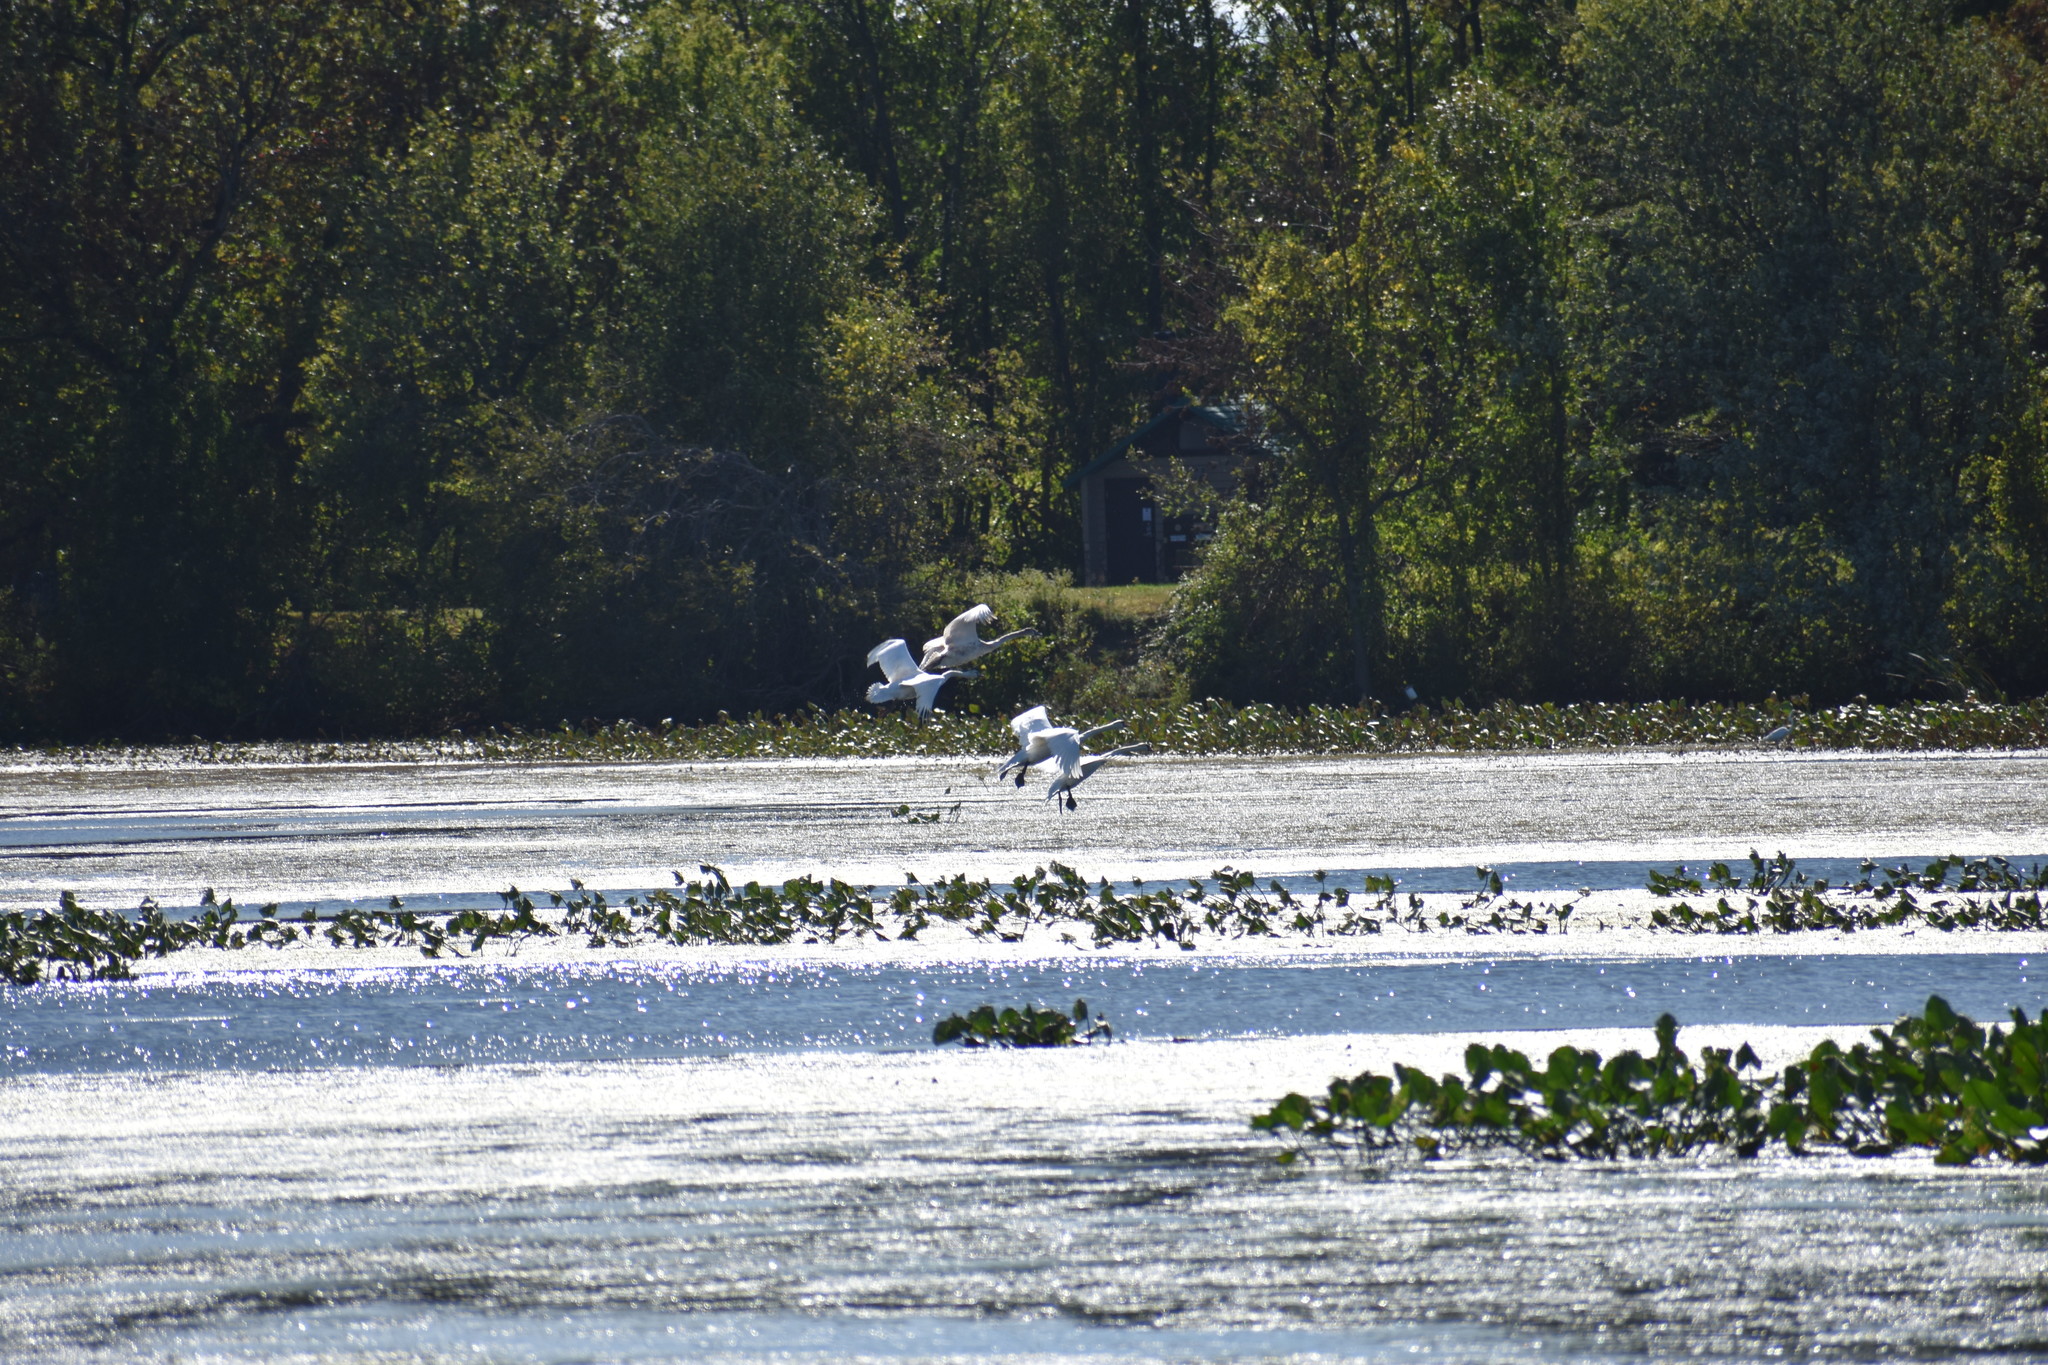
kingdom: Animalia
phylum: Chordata
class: Aves
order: Anseriformes
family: Anatidae
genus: Cygnus
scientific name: Cygnus olor
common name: Mute swan
